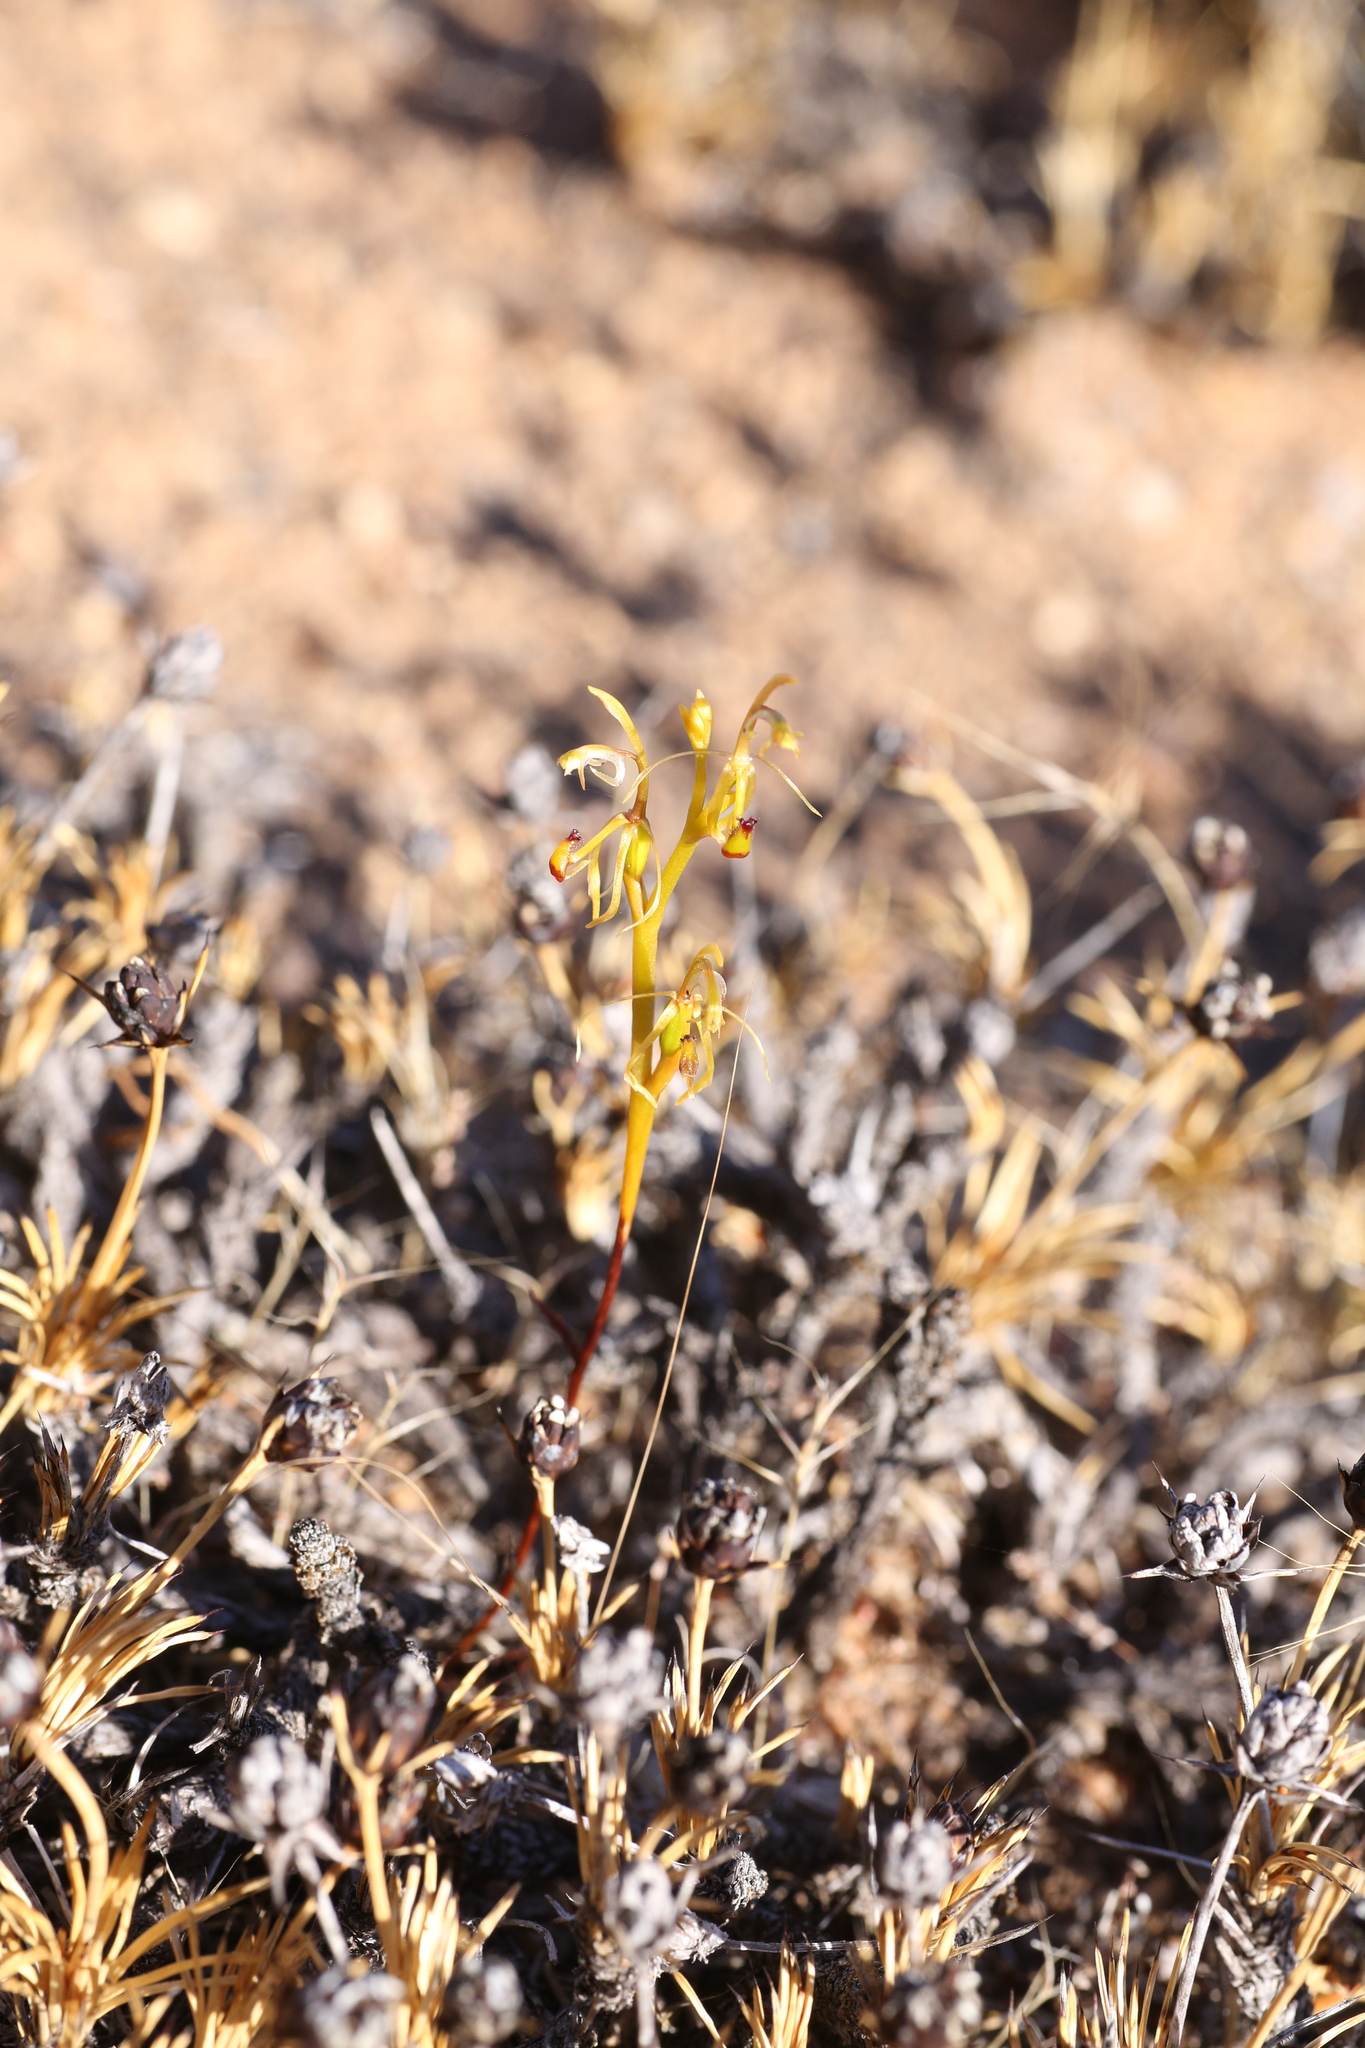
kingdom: Plantae
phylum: Tracheophyta
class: Liliopsida
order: Asparagales
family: Orchidaceae
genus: Spiculaea
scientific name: Spiculaea ciliata
